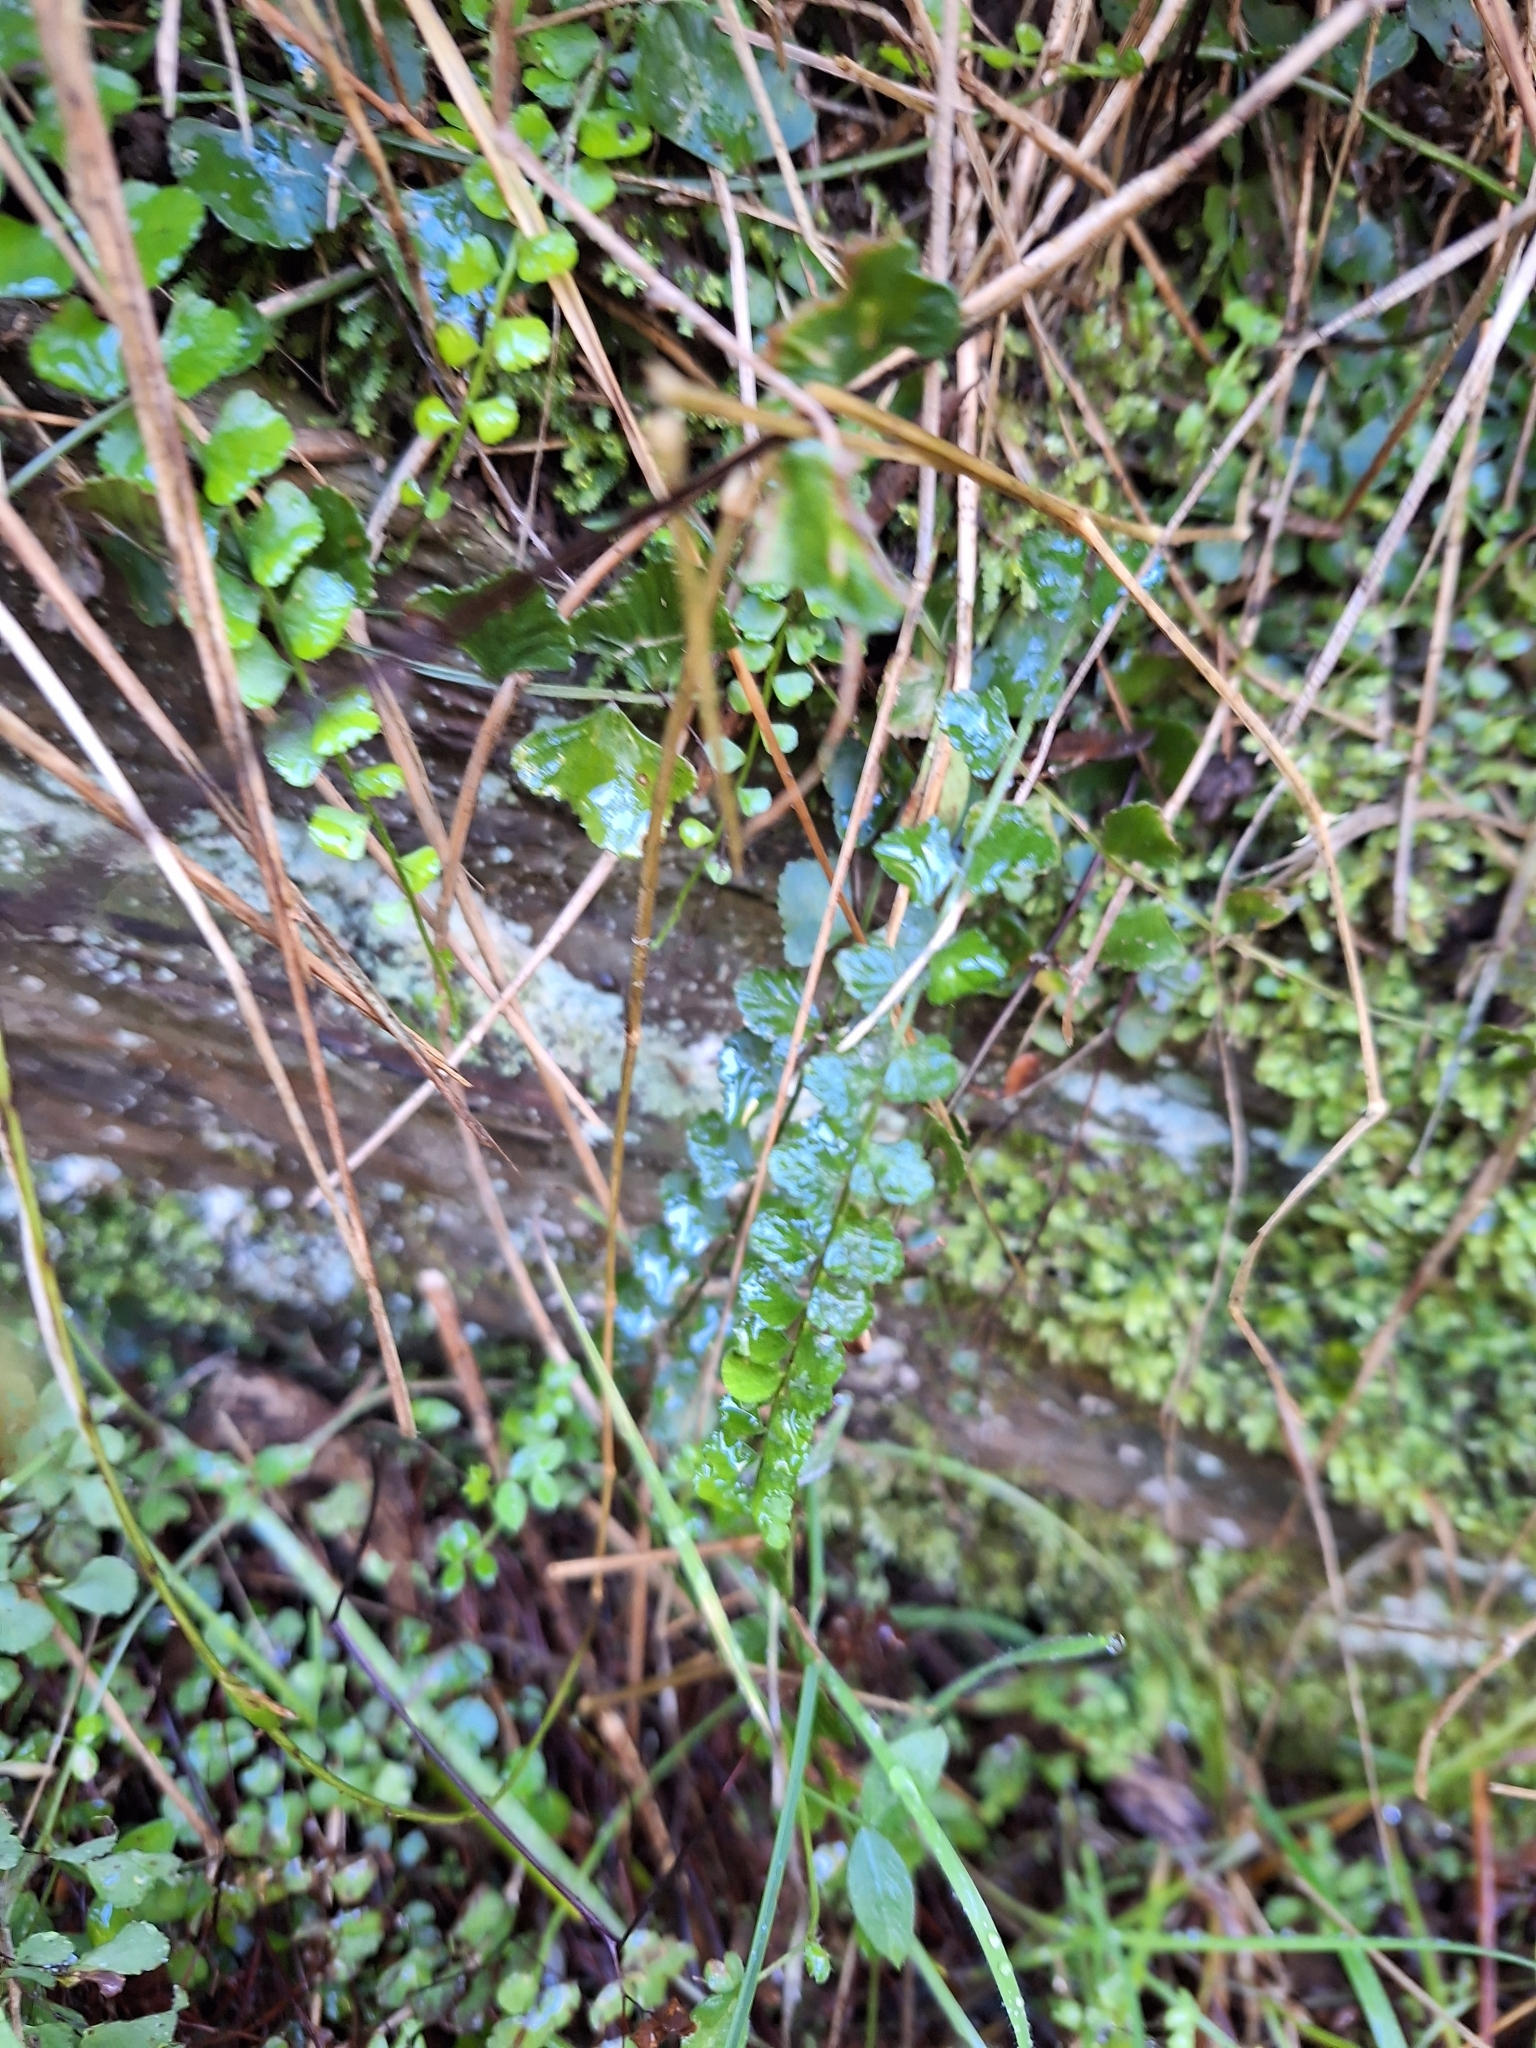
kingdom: Plantae
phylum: Tracheophyta
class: Polypodiopsida
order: Polypodiales
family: Aspleniaceae
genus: Asplenium
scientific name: Asplenium flabellifolium
